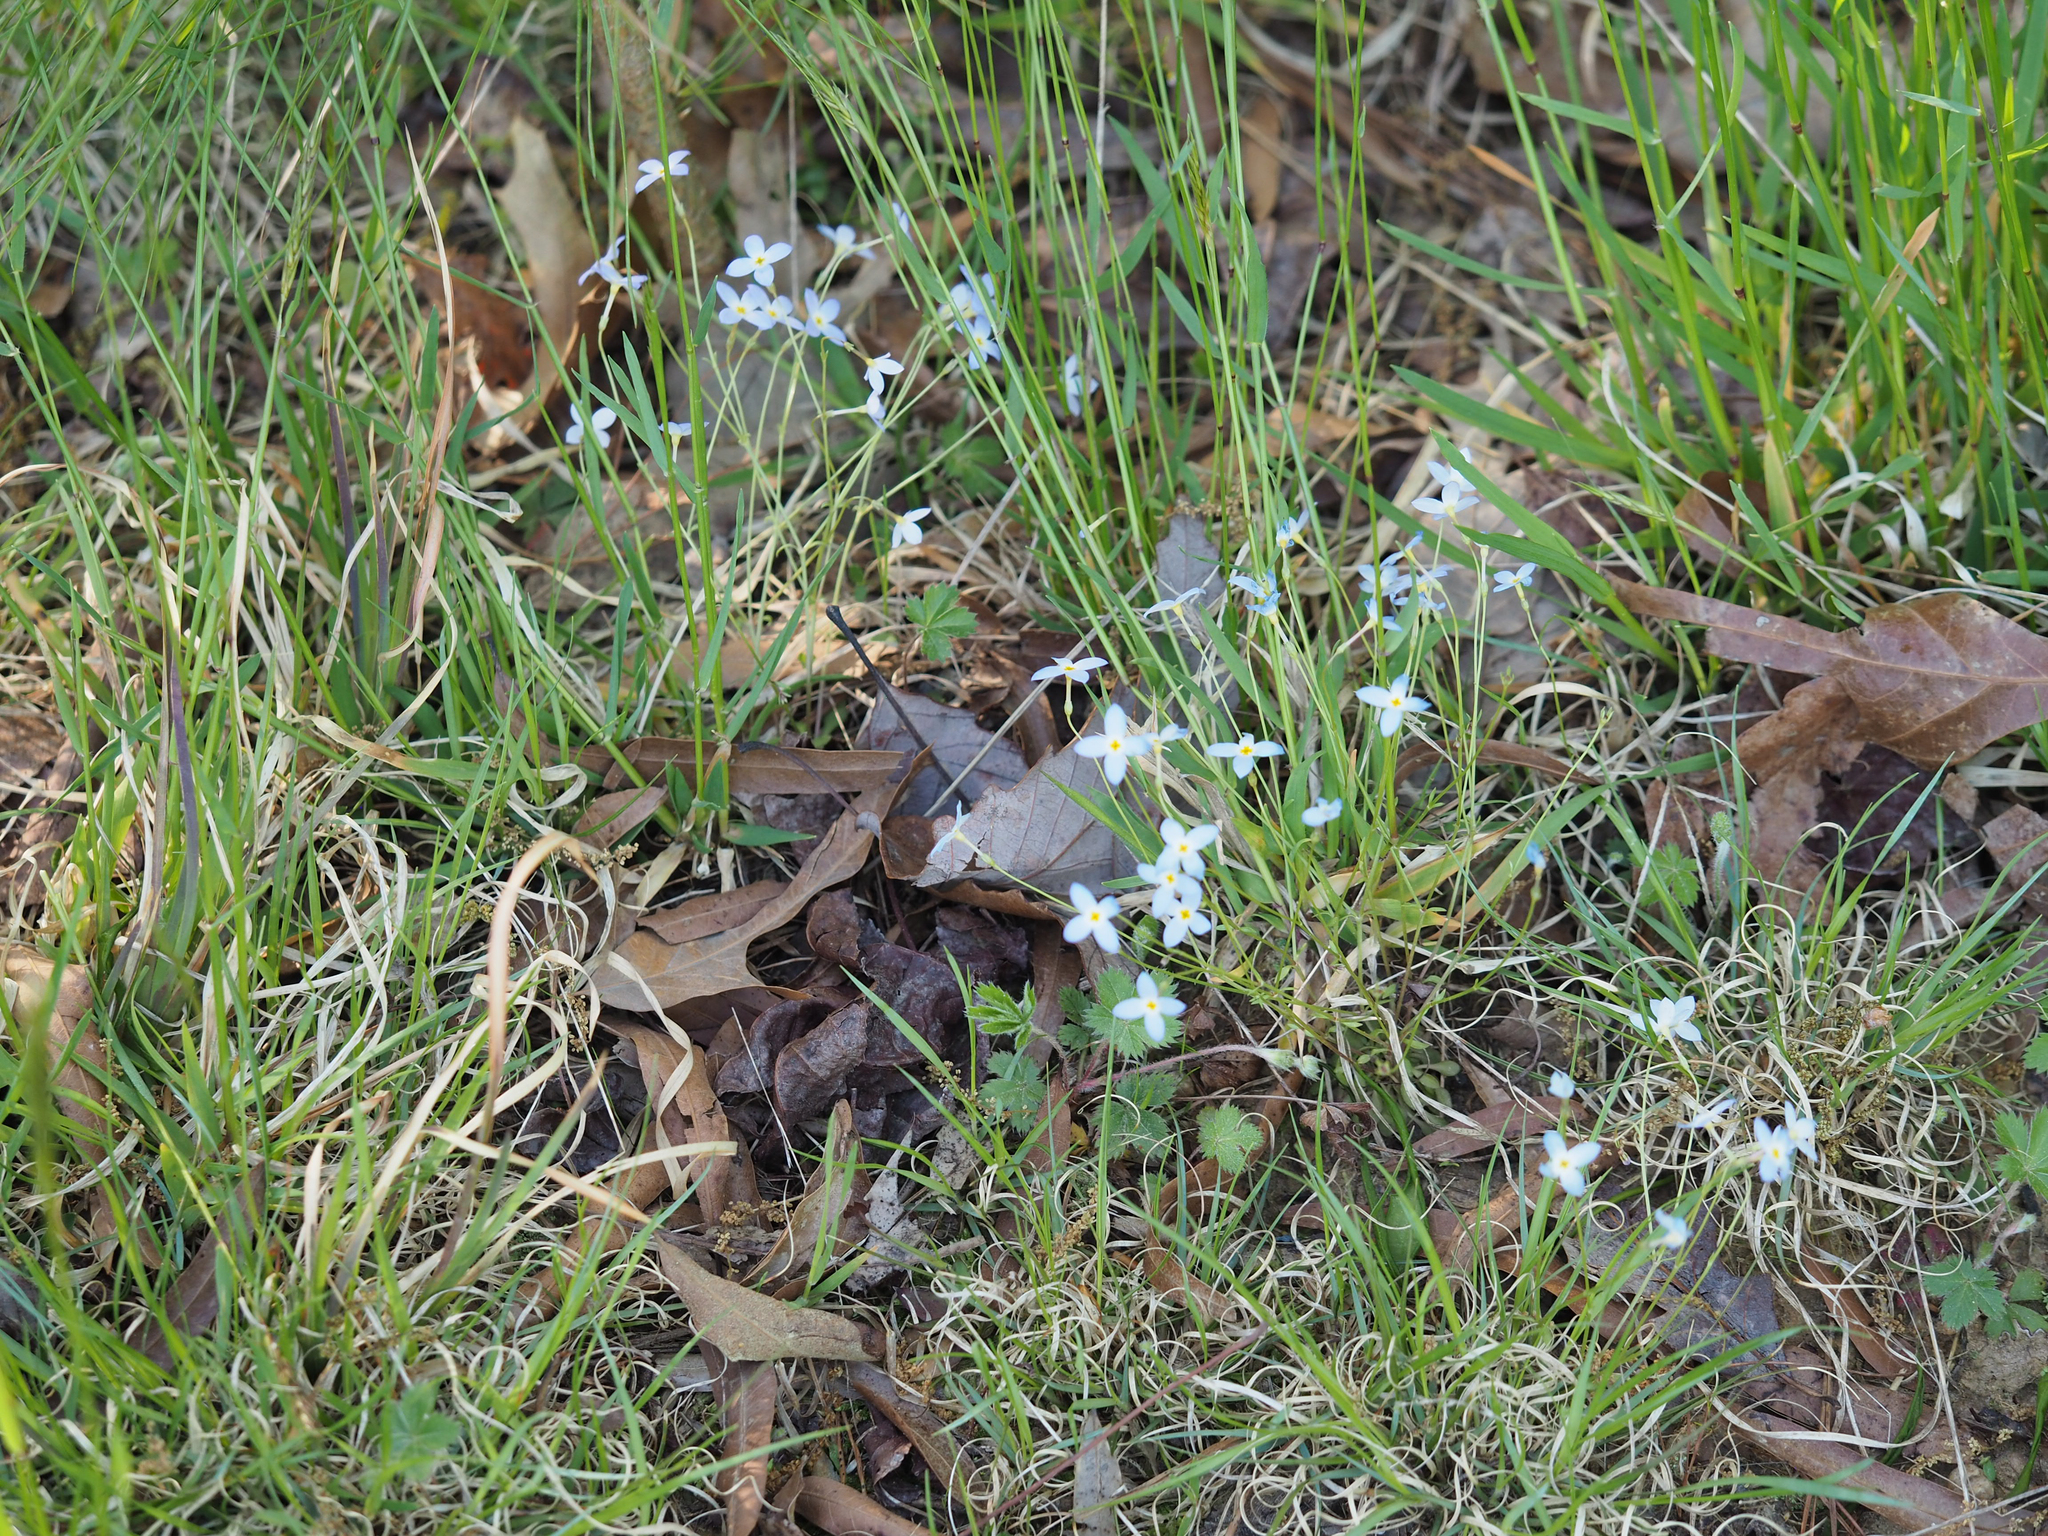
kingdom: Plantae
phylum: Tracheophyta
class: Magnoliopsida
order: Gentianales
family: Rubiaceae
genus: Houstonia
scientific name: Houstonia caerulea
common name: Bluets
